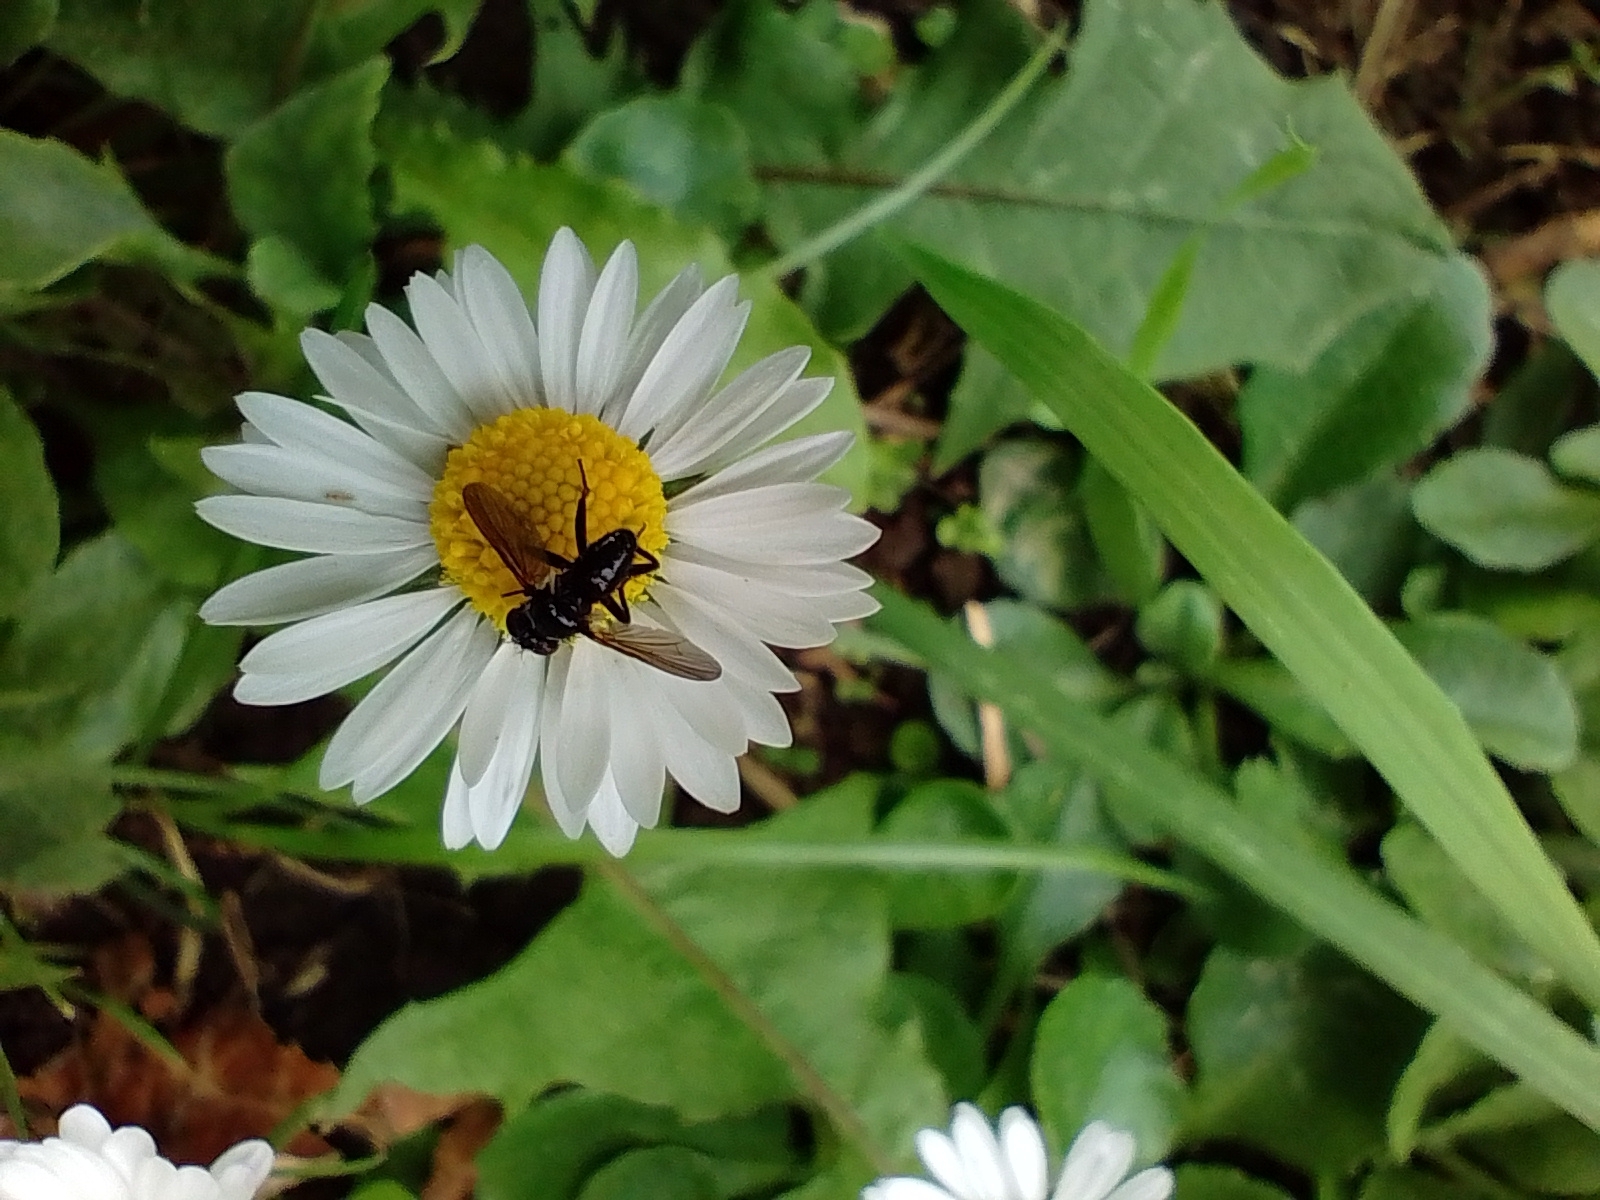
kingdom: Animalia
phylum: Arthropoda
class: Insecta
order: Diptera
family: Tachinidae
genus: Phania
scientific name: Phania funesta
